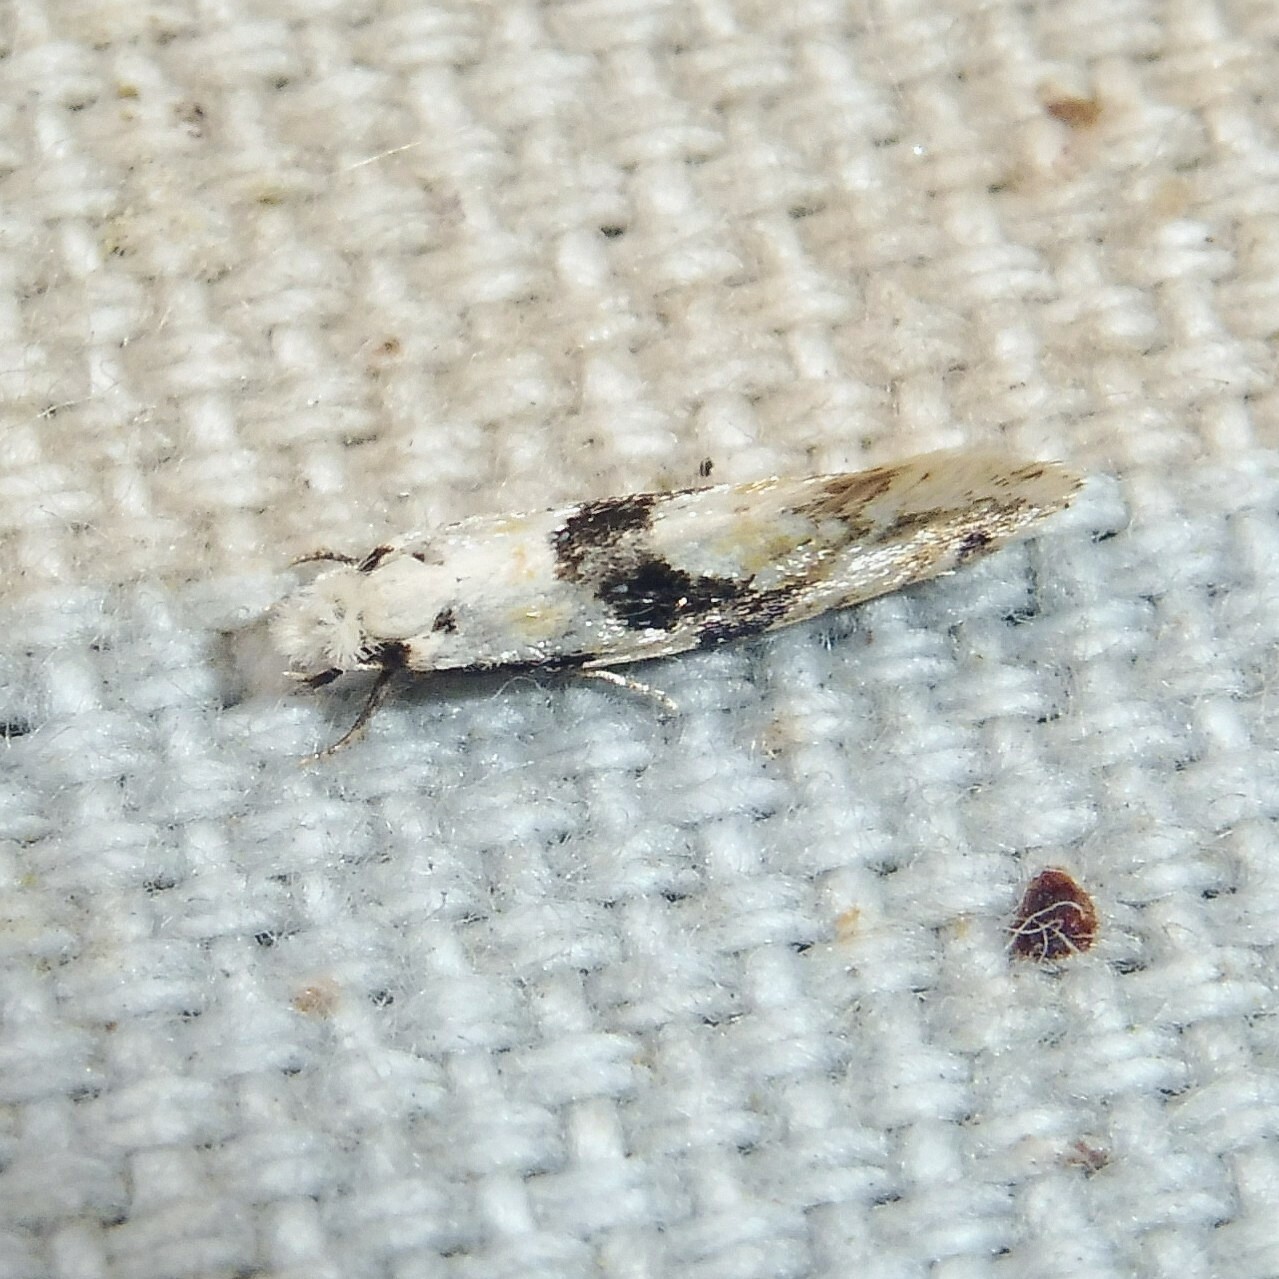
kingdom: Animalia
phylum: Arthropoda
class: Insecta
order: Lepidoptera
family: Tineidae
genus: Nemapogon
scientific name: Nemapogon clematella
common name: Barred white clothes
